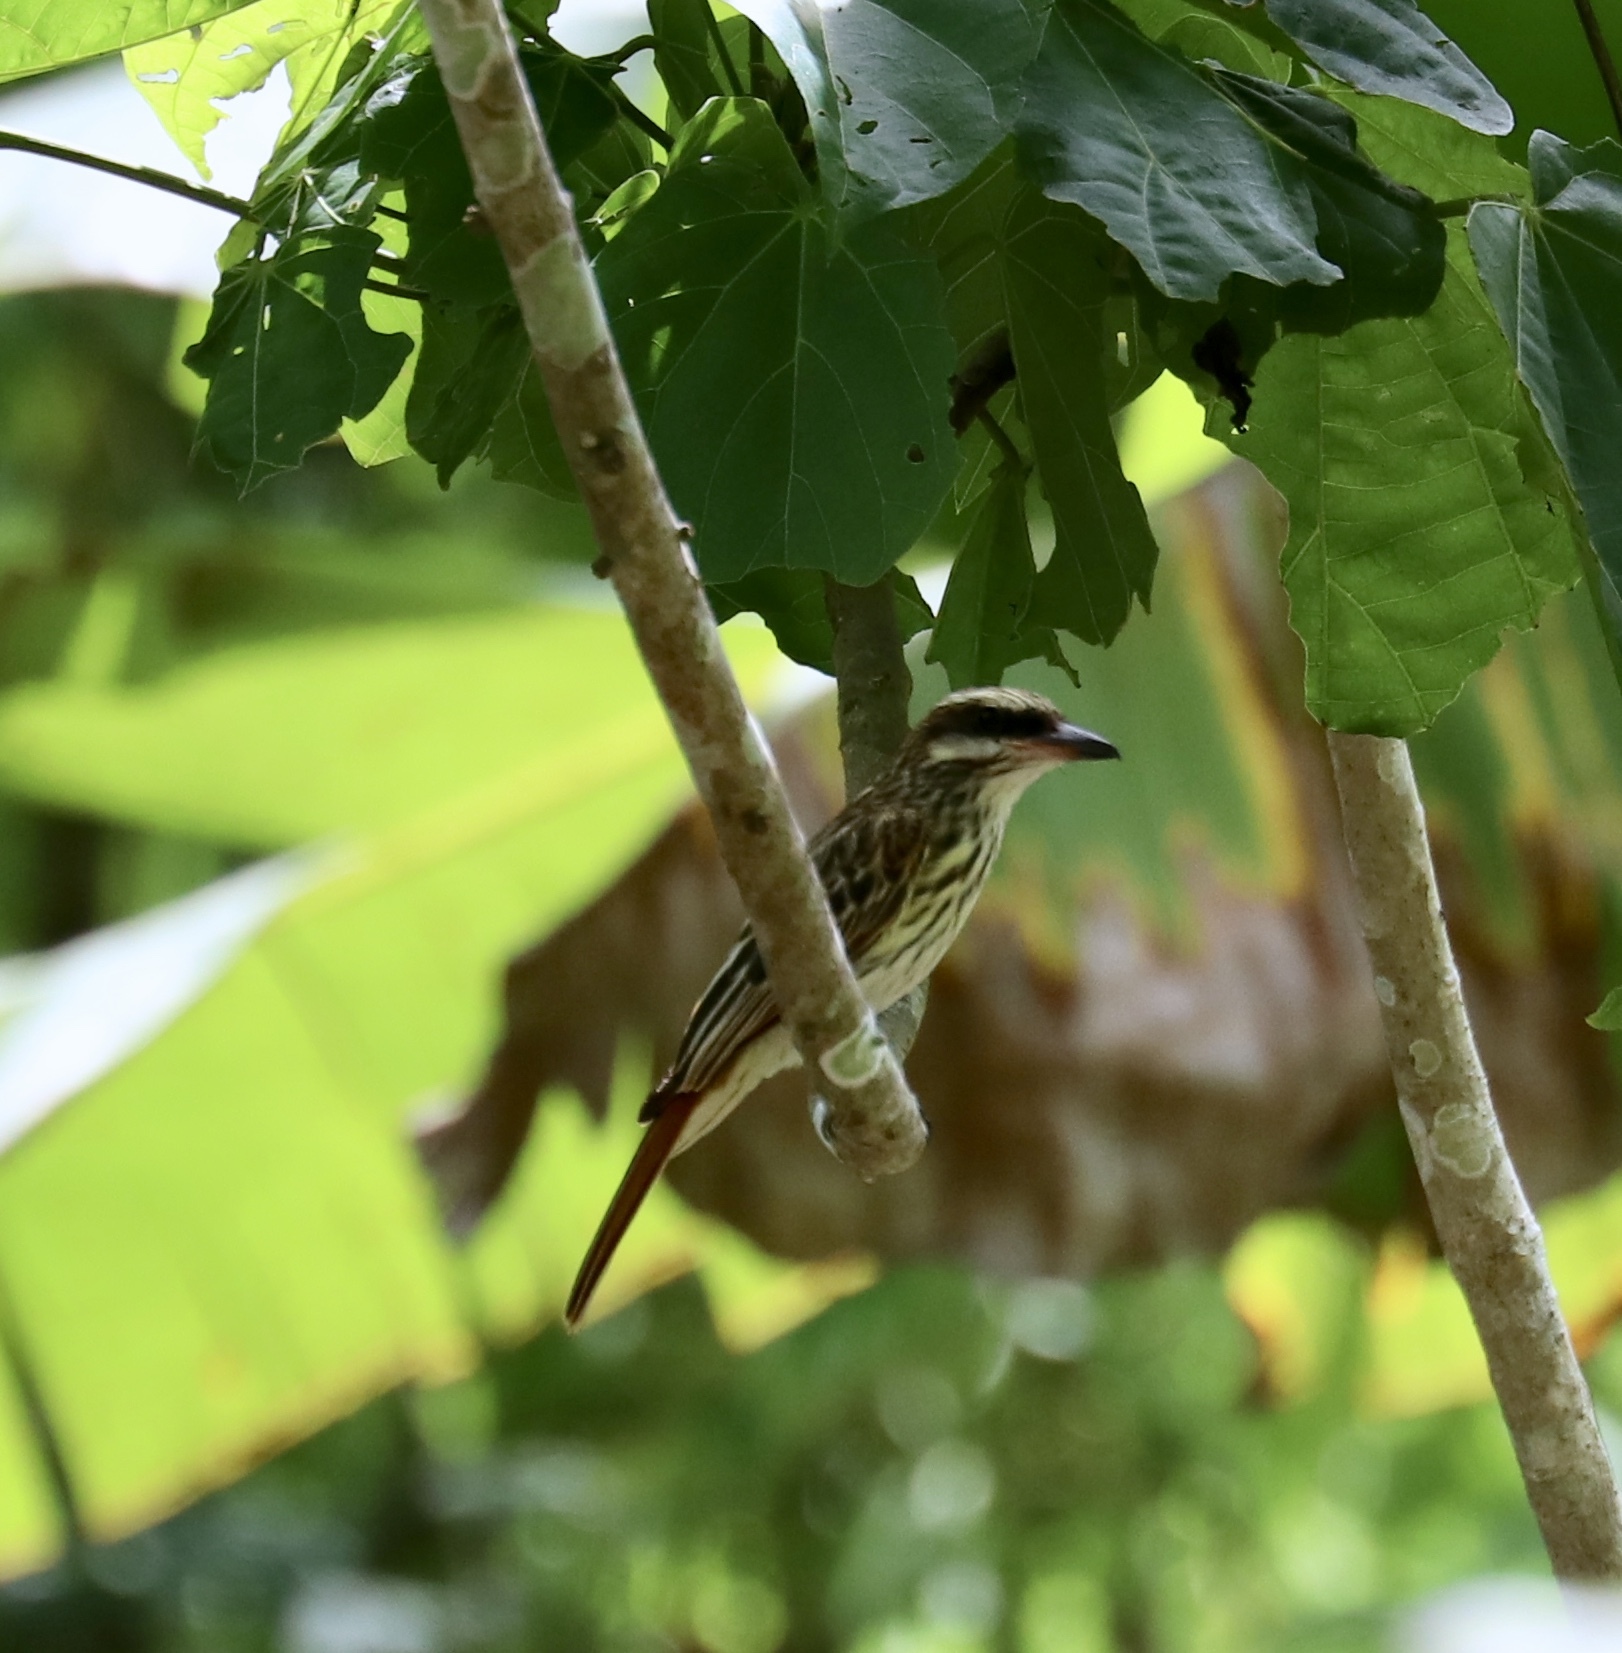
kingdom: Animalia
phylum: Chordata
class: Aves
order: Passeriformes
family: Tyrannidae
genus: Myiodynastes
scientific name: Myiodynastes maculatus
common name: Streaked flycatcher
